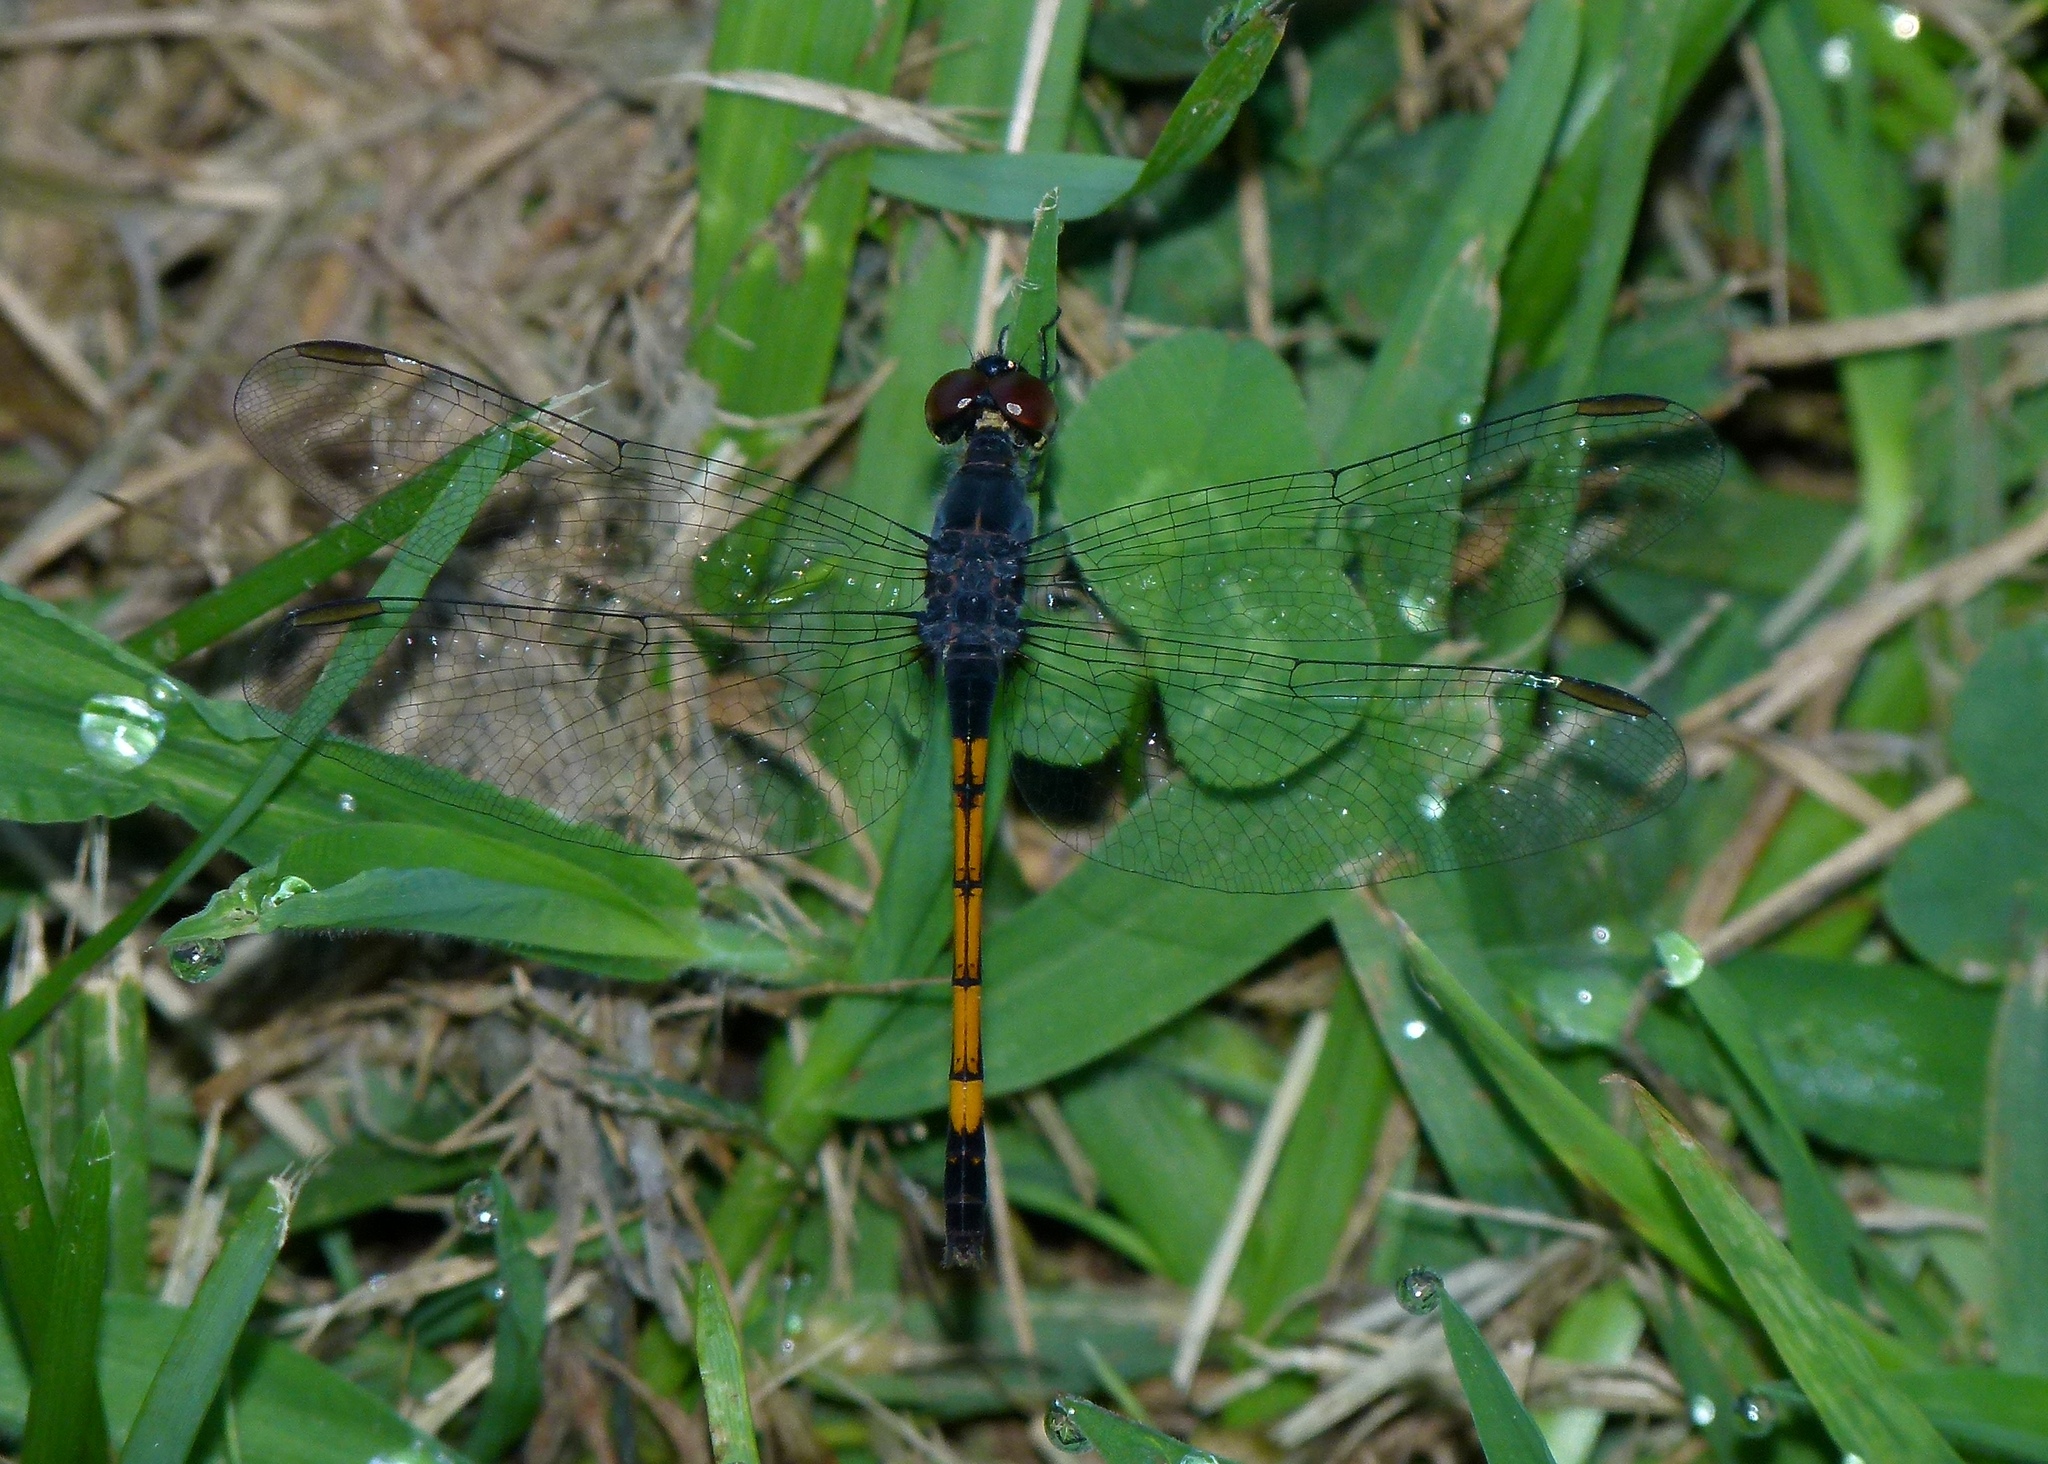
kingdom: Animalia
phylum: Arthropoda
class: Insecta
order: Odonata
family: Libellulidae
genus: Erythrodiplax
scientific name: Erythrodiplax berenice
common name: Seaside dragonlet
